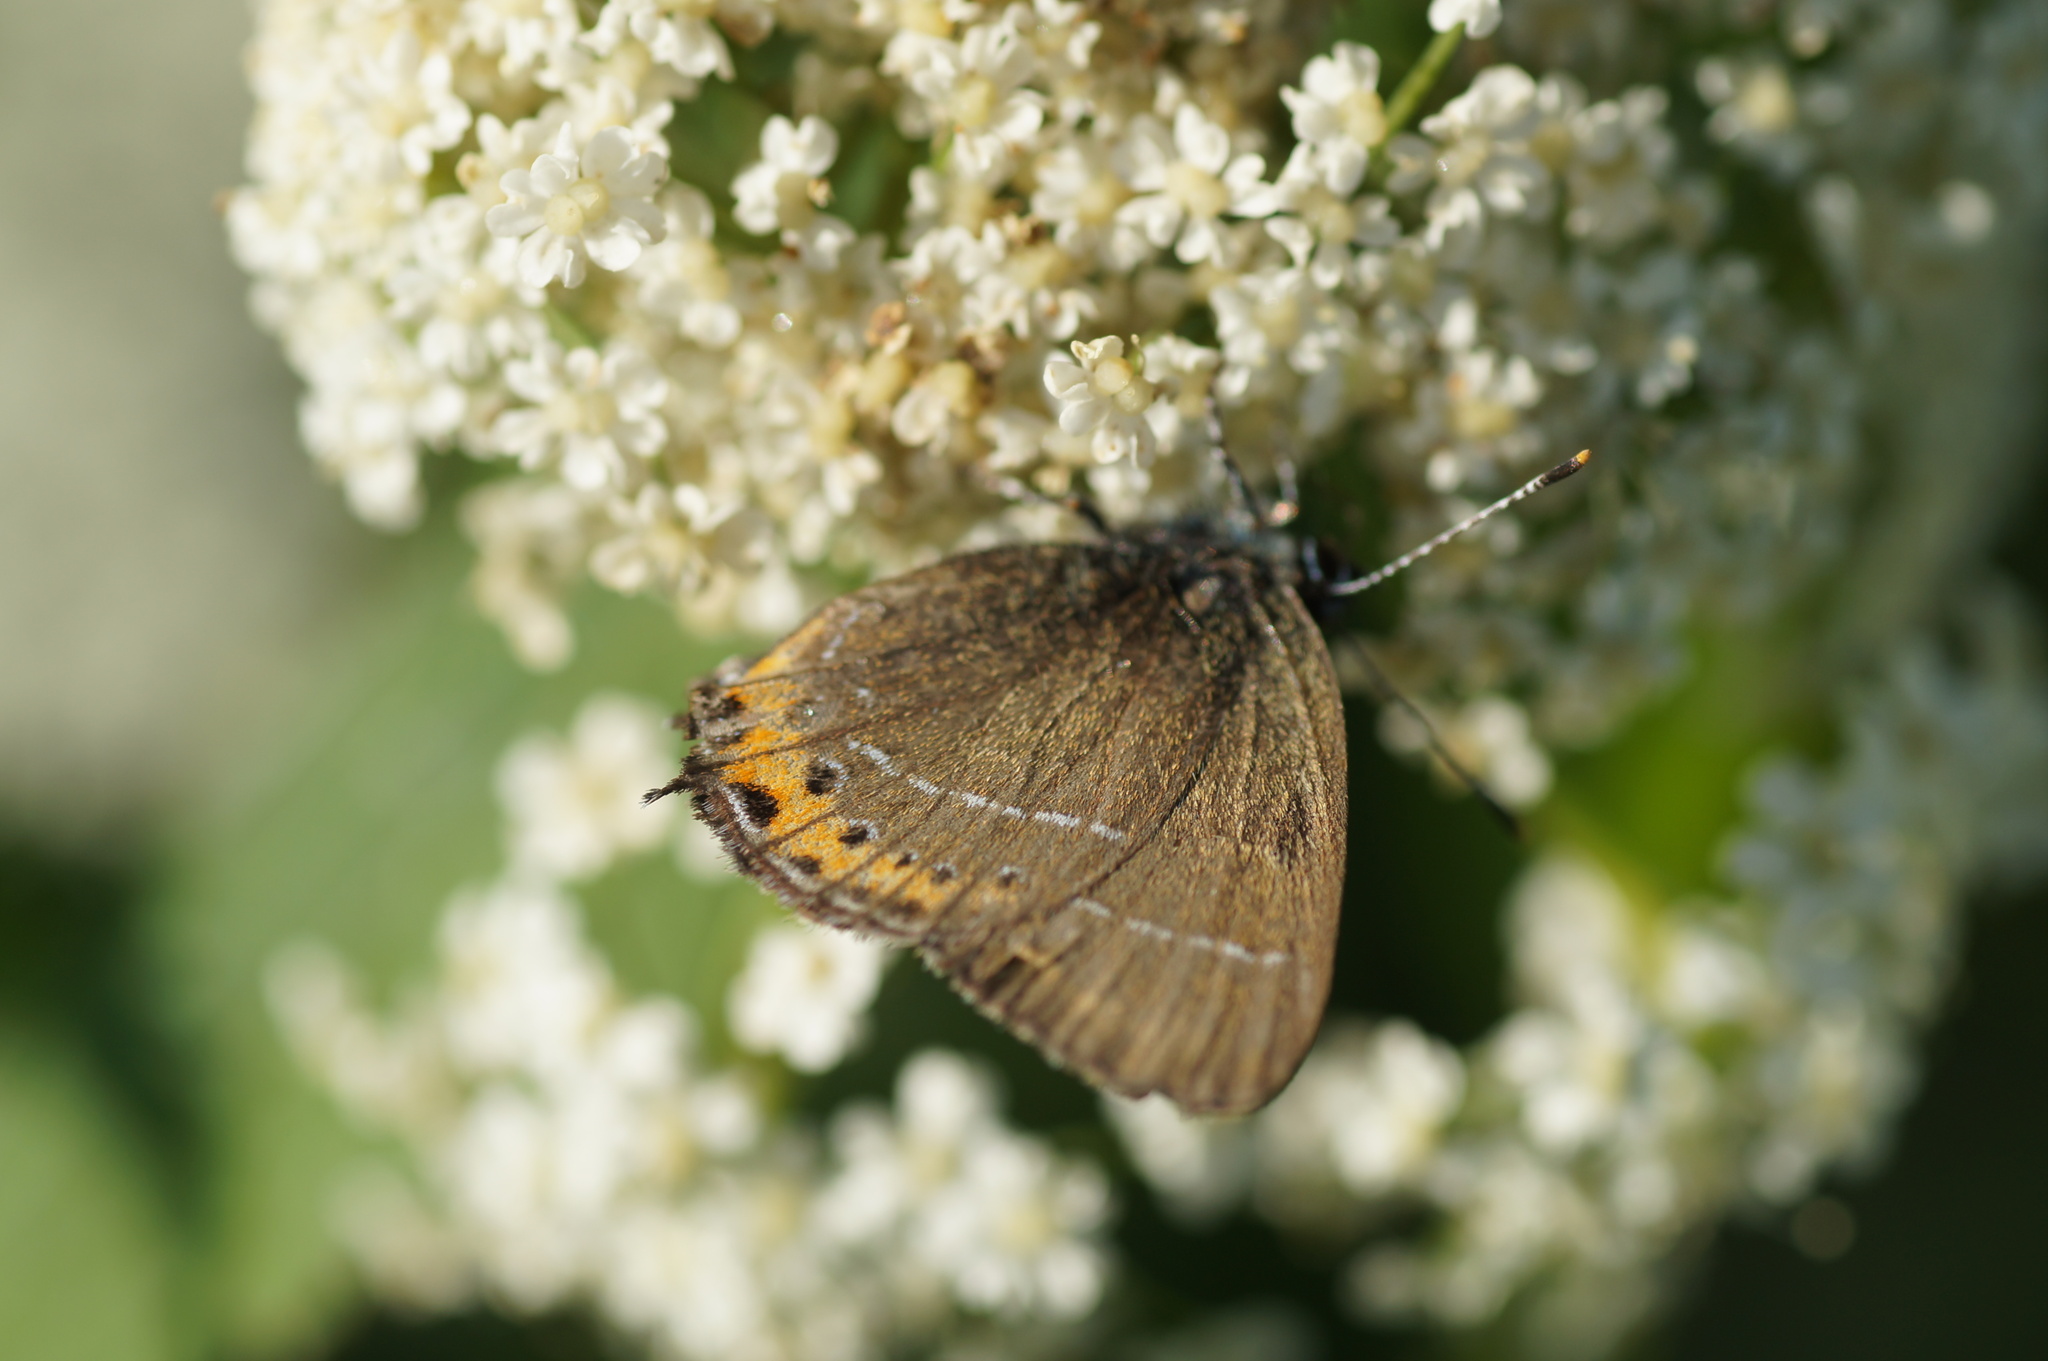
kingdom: Animalia
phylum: Arthropoda
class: Insecta
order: Lepidoptera
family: Lycaenidae
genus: Fixsenia
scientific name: Fixsenia pruni
